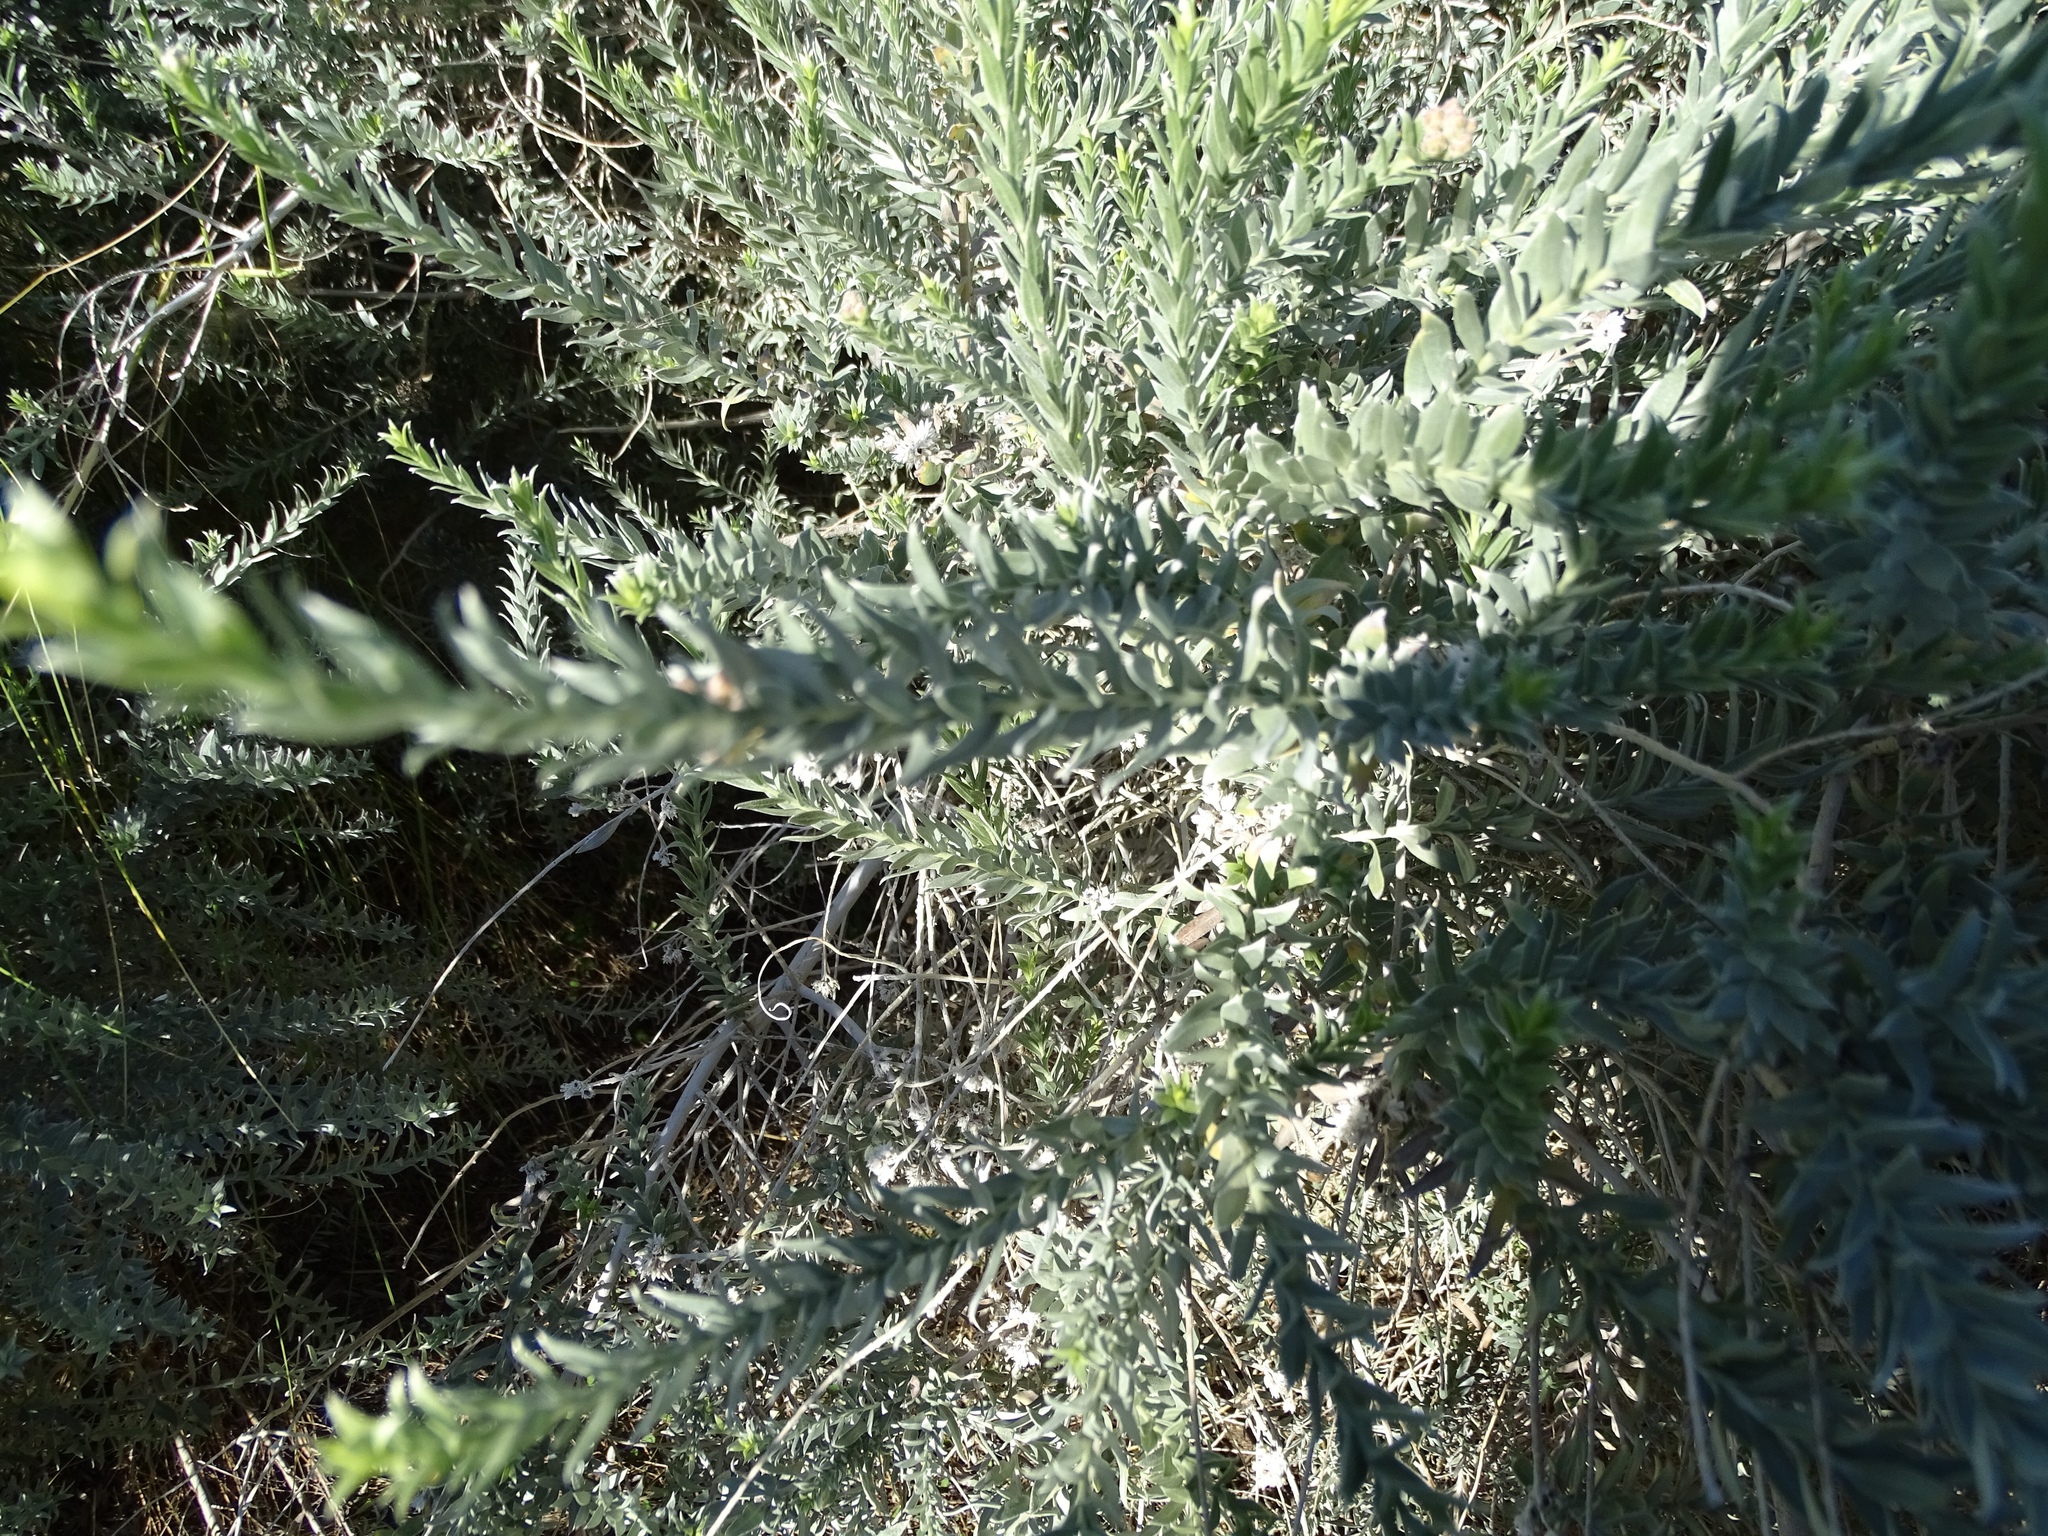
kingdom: Plantae
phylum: Tracheophyta
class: Magnoliopsida
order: Asterales
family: Asteraceae
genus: Pluchea
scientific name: Pluchea sericea
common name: Arrow-weed
